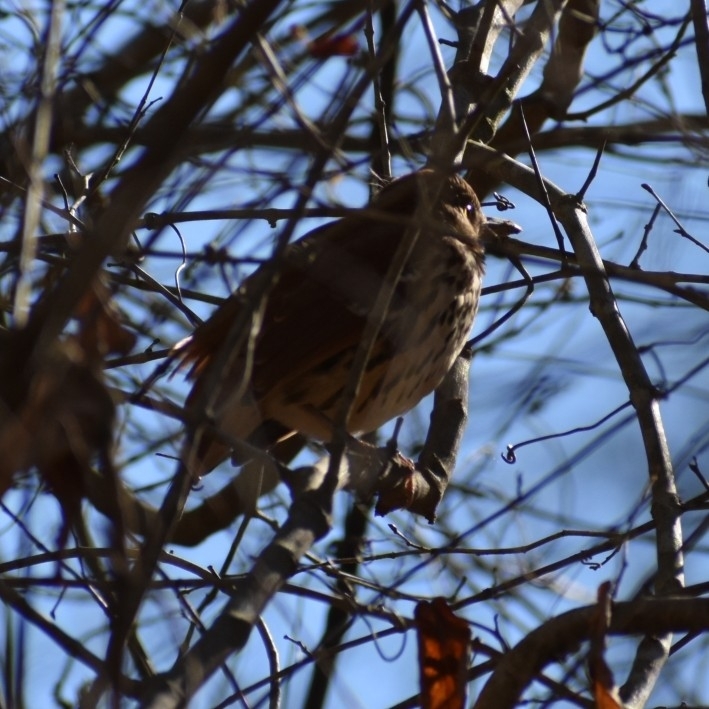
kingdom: Animalia
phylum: Chordata
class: Aves
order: Passeriformes
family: Mimidae
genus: Toxostoma
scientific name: Toxostoma rufum
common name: Brown thrasher
